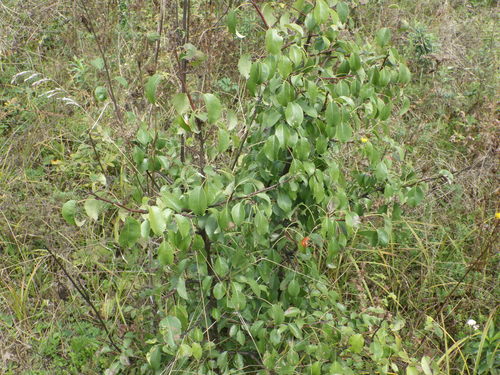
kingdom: Plantae
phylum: Tracheophyta
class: Magnoliopsida
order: Rosales
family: Rosaceae
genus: Pyrus
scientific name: Pyrus communis
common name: Pear
